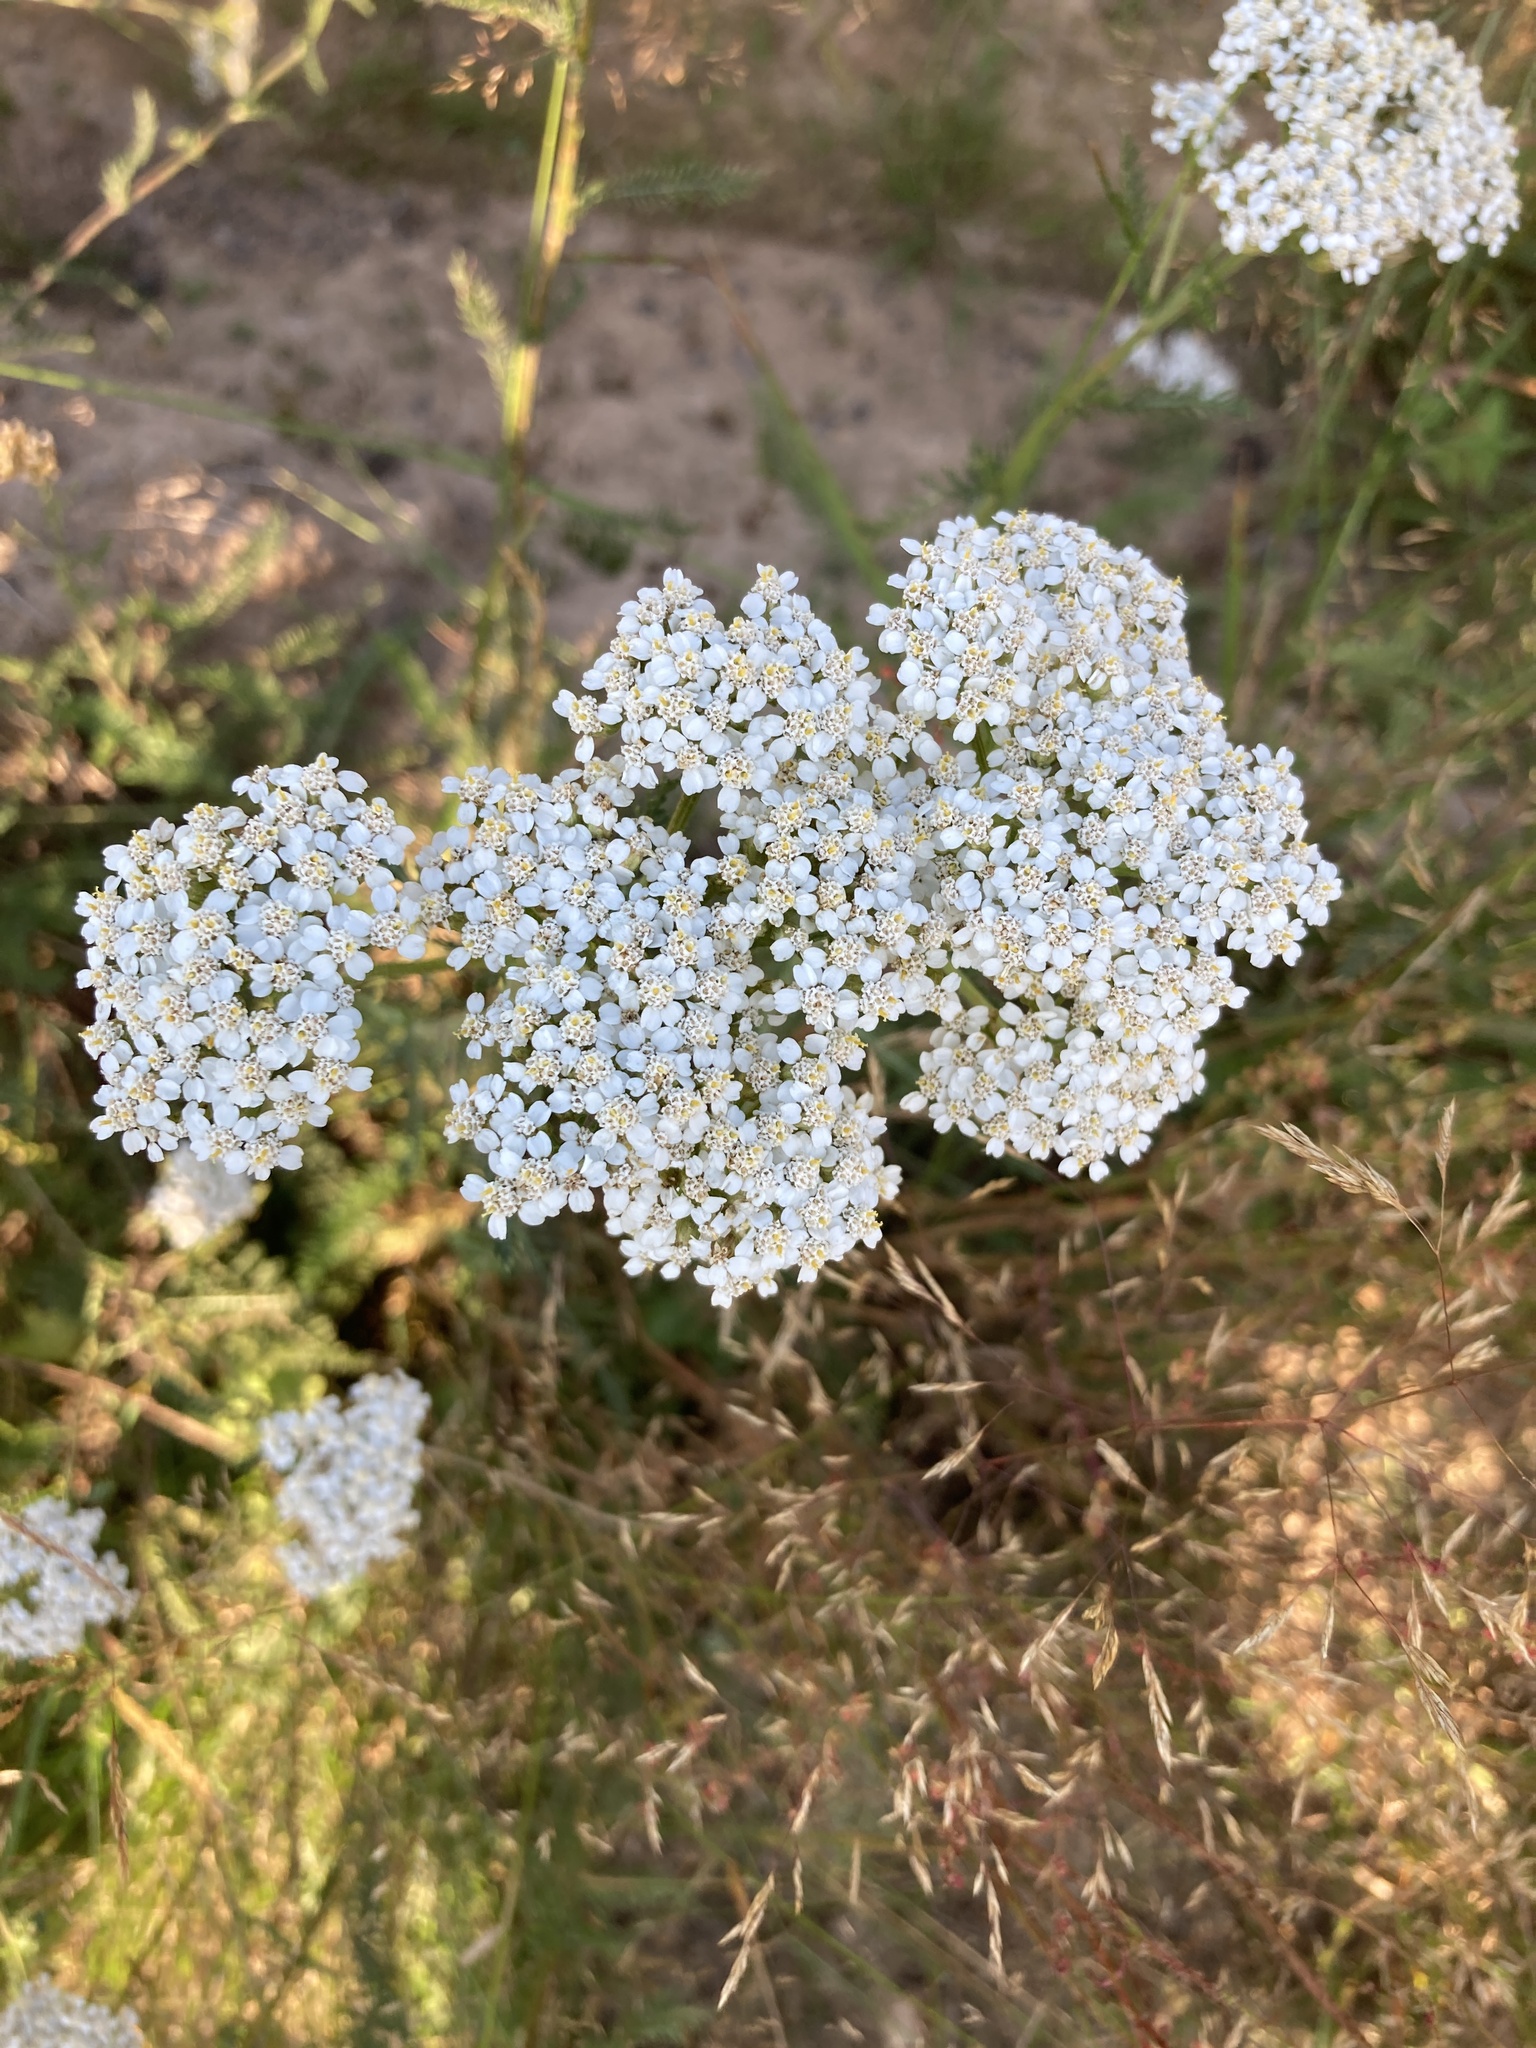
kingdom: Plantae
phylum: Tracheophyta
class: Magnoliopsida
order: Asterales
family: Asteraceae
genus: Achillea
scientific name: Achillea millefolium
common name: Yarrow
